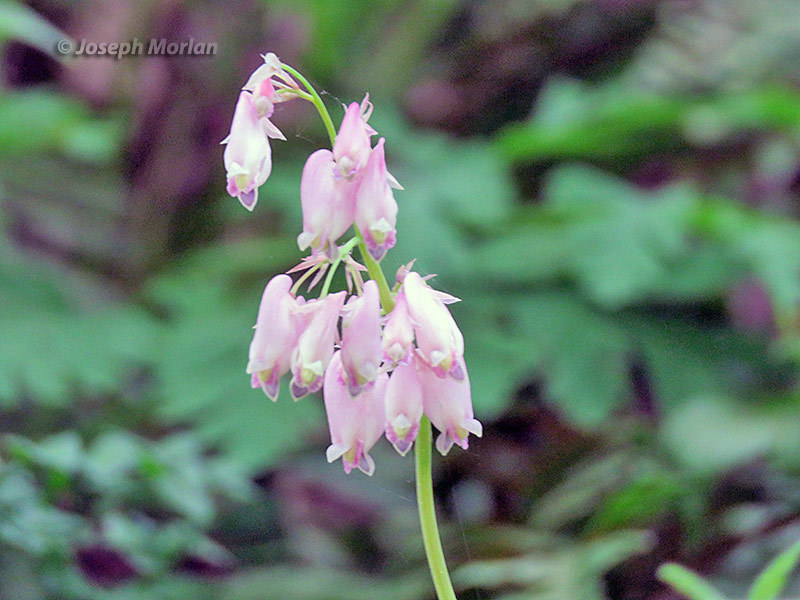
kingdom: Plantae
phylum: Tracheophyta
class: Magnoliopsida
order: Ranunculales
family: Papaveraceae
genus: Dicentra
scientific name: Dicentra formosa
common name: Bleeding-heart
